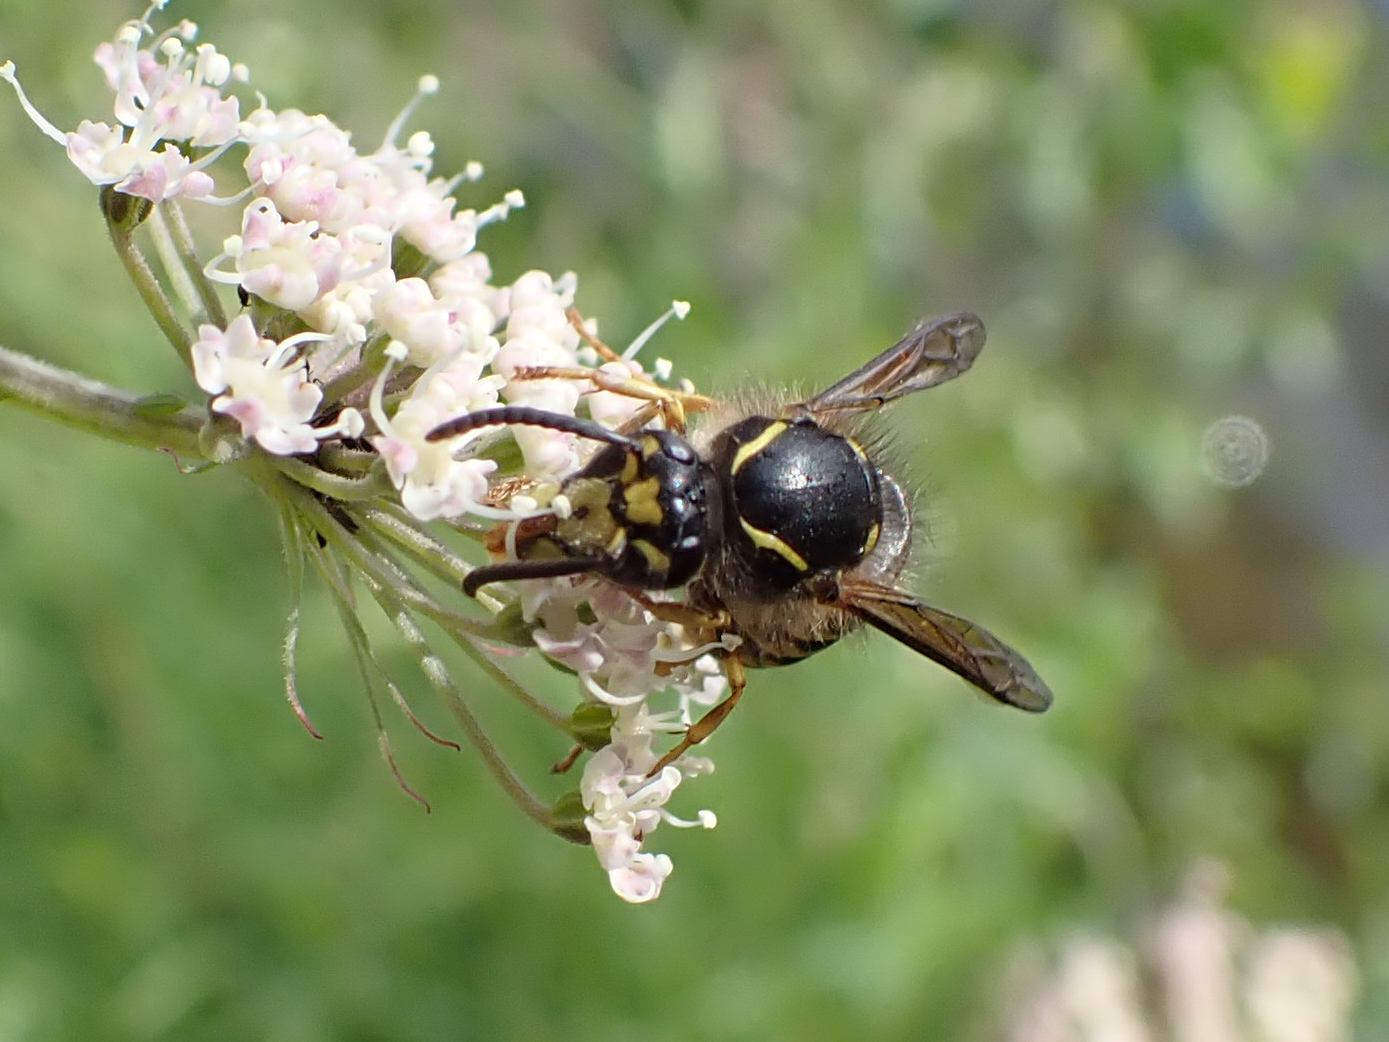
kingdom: Animalia
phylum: Arthropoda
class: Insecta
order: Hymenoptera
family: Vespidae
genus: Dolichovespula
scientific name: Dolichovespula arenaria
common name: Aerial yellowjacket
